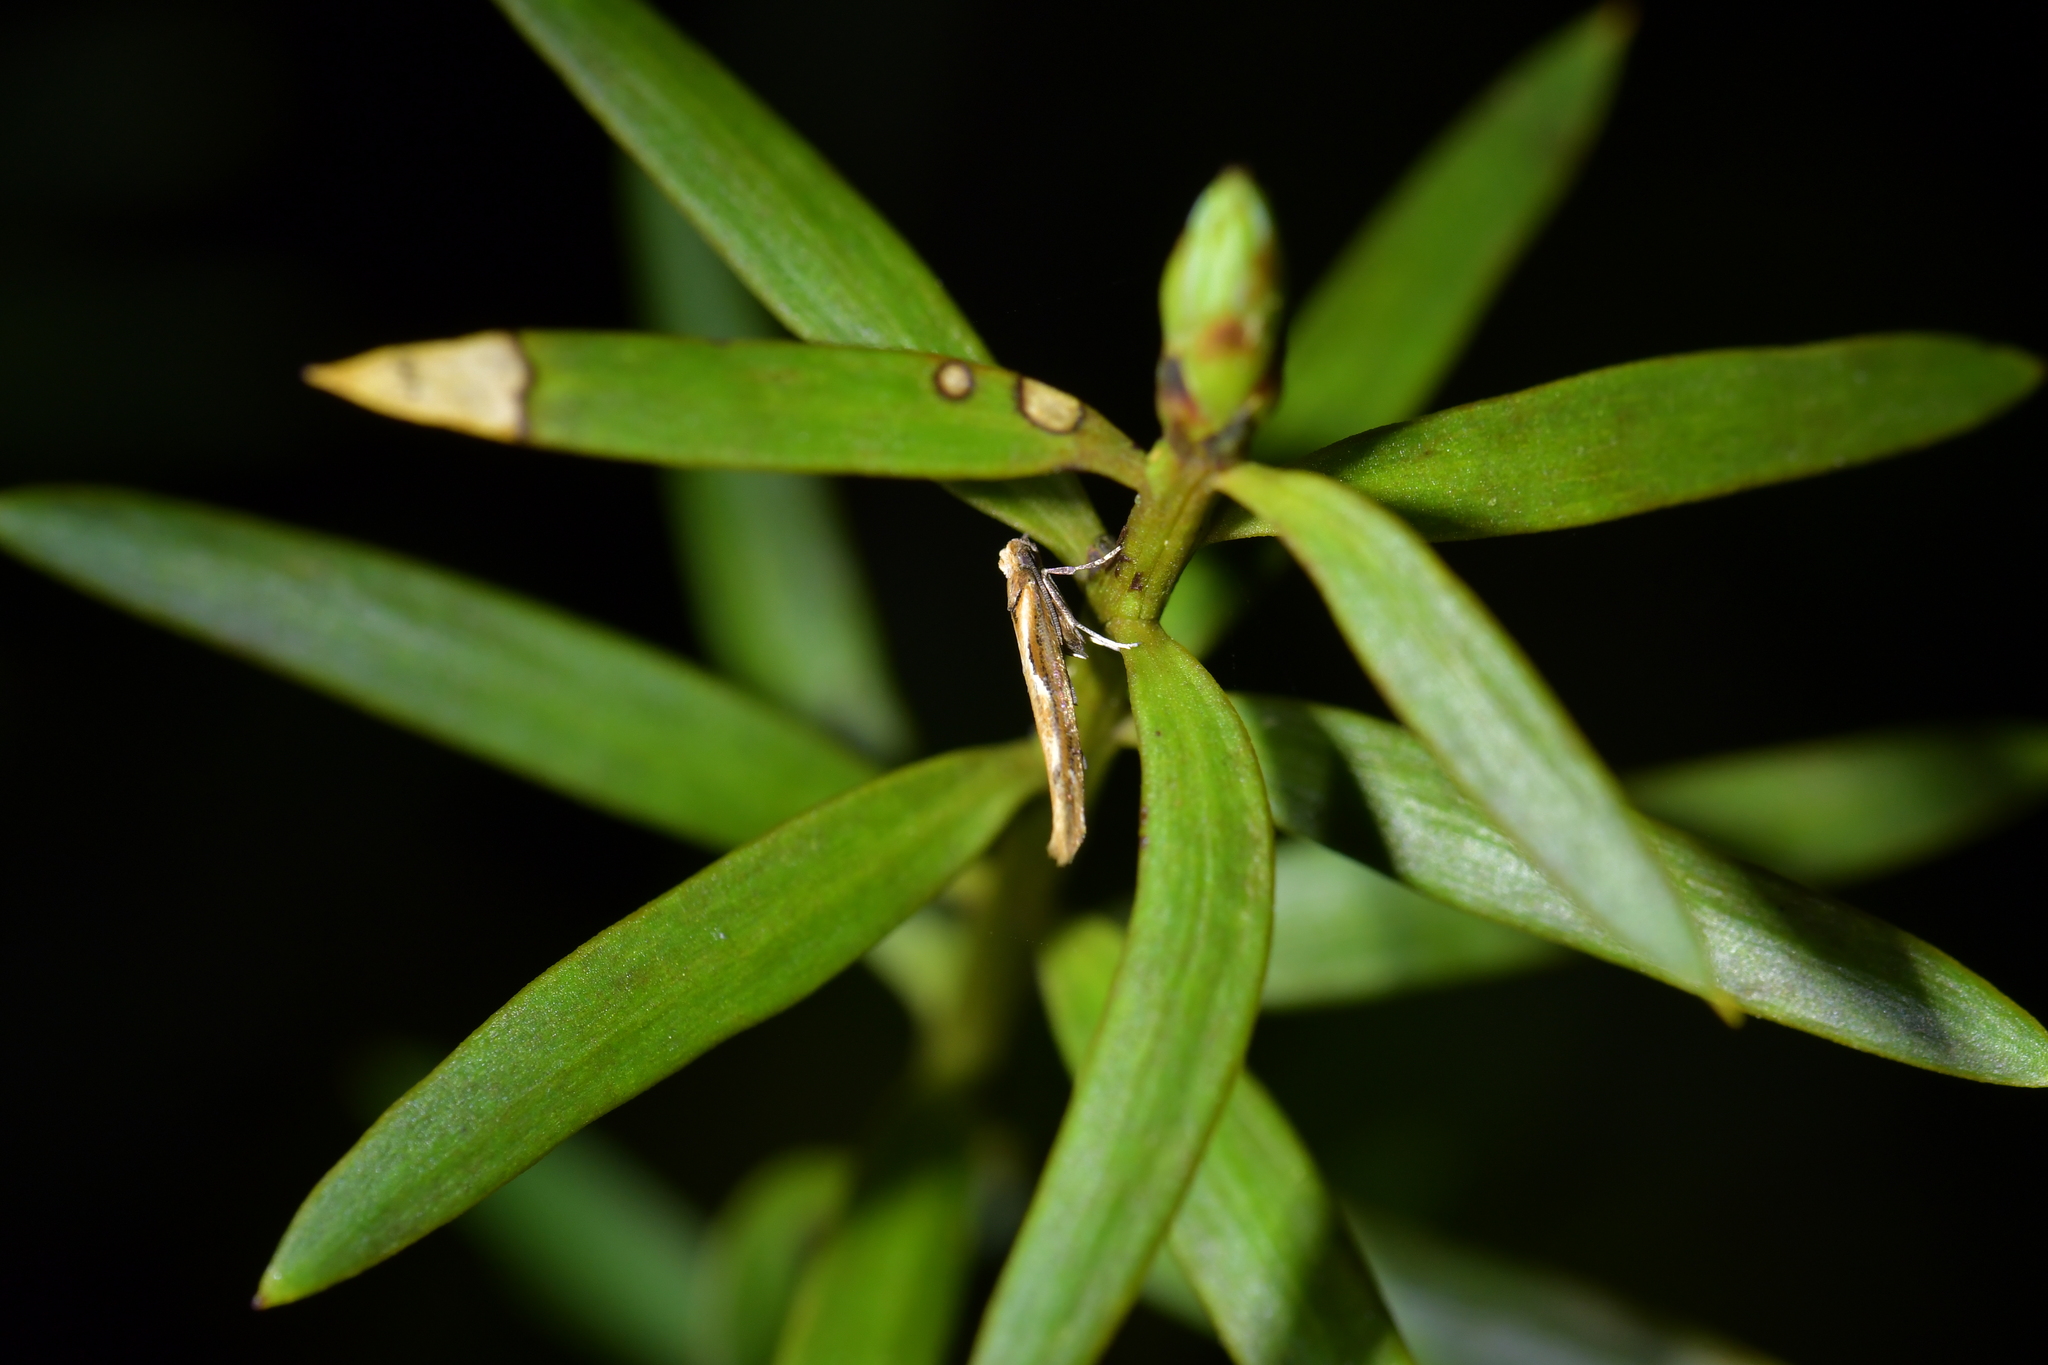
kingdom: Animalia
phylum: Arthropoda
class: Insecta
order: Lepidoptera
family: Yponomeutidae
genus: Zelleria
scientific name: Zelleria porphyraula
